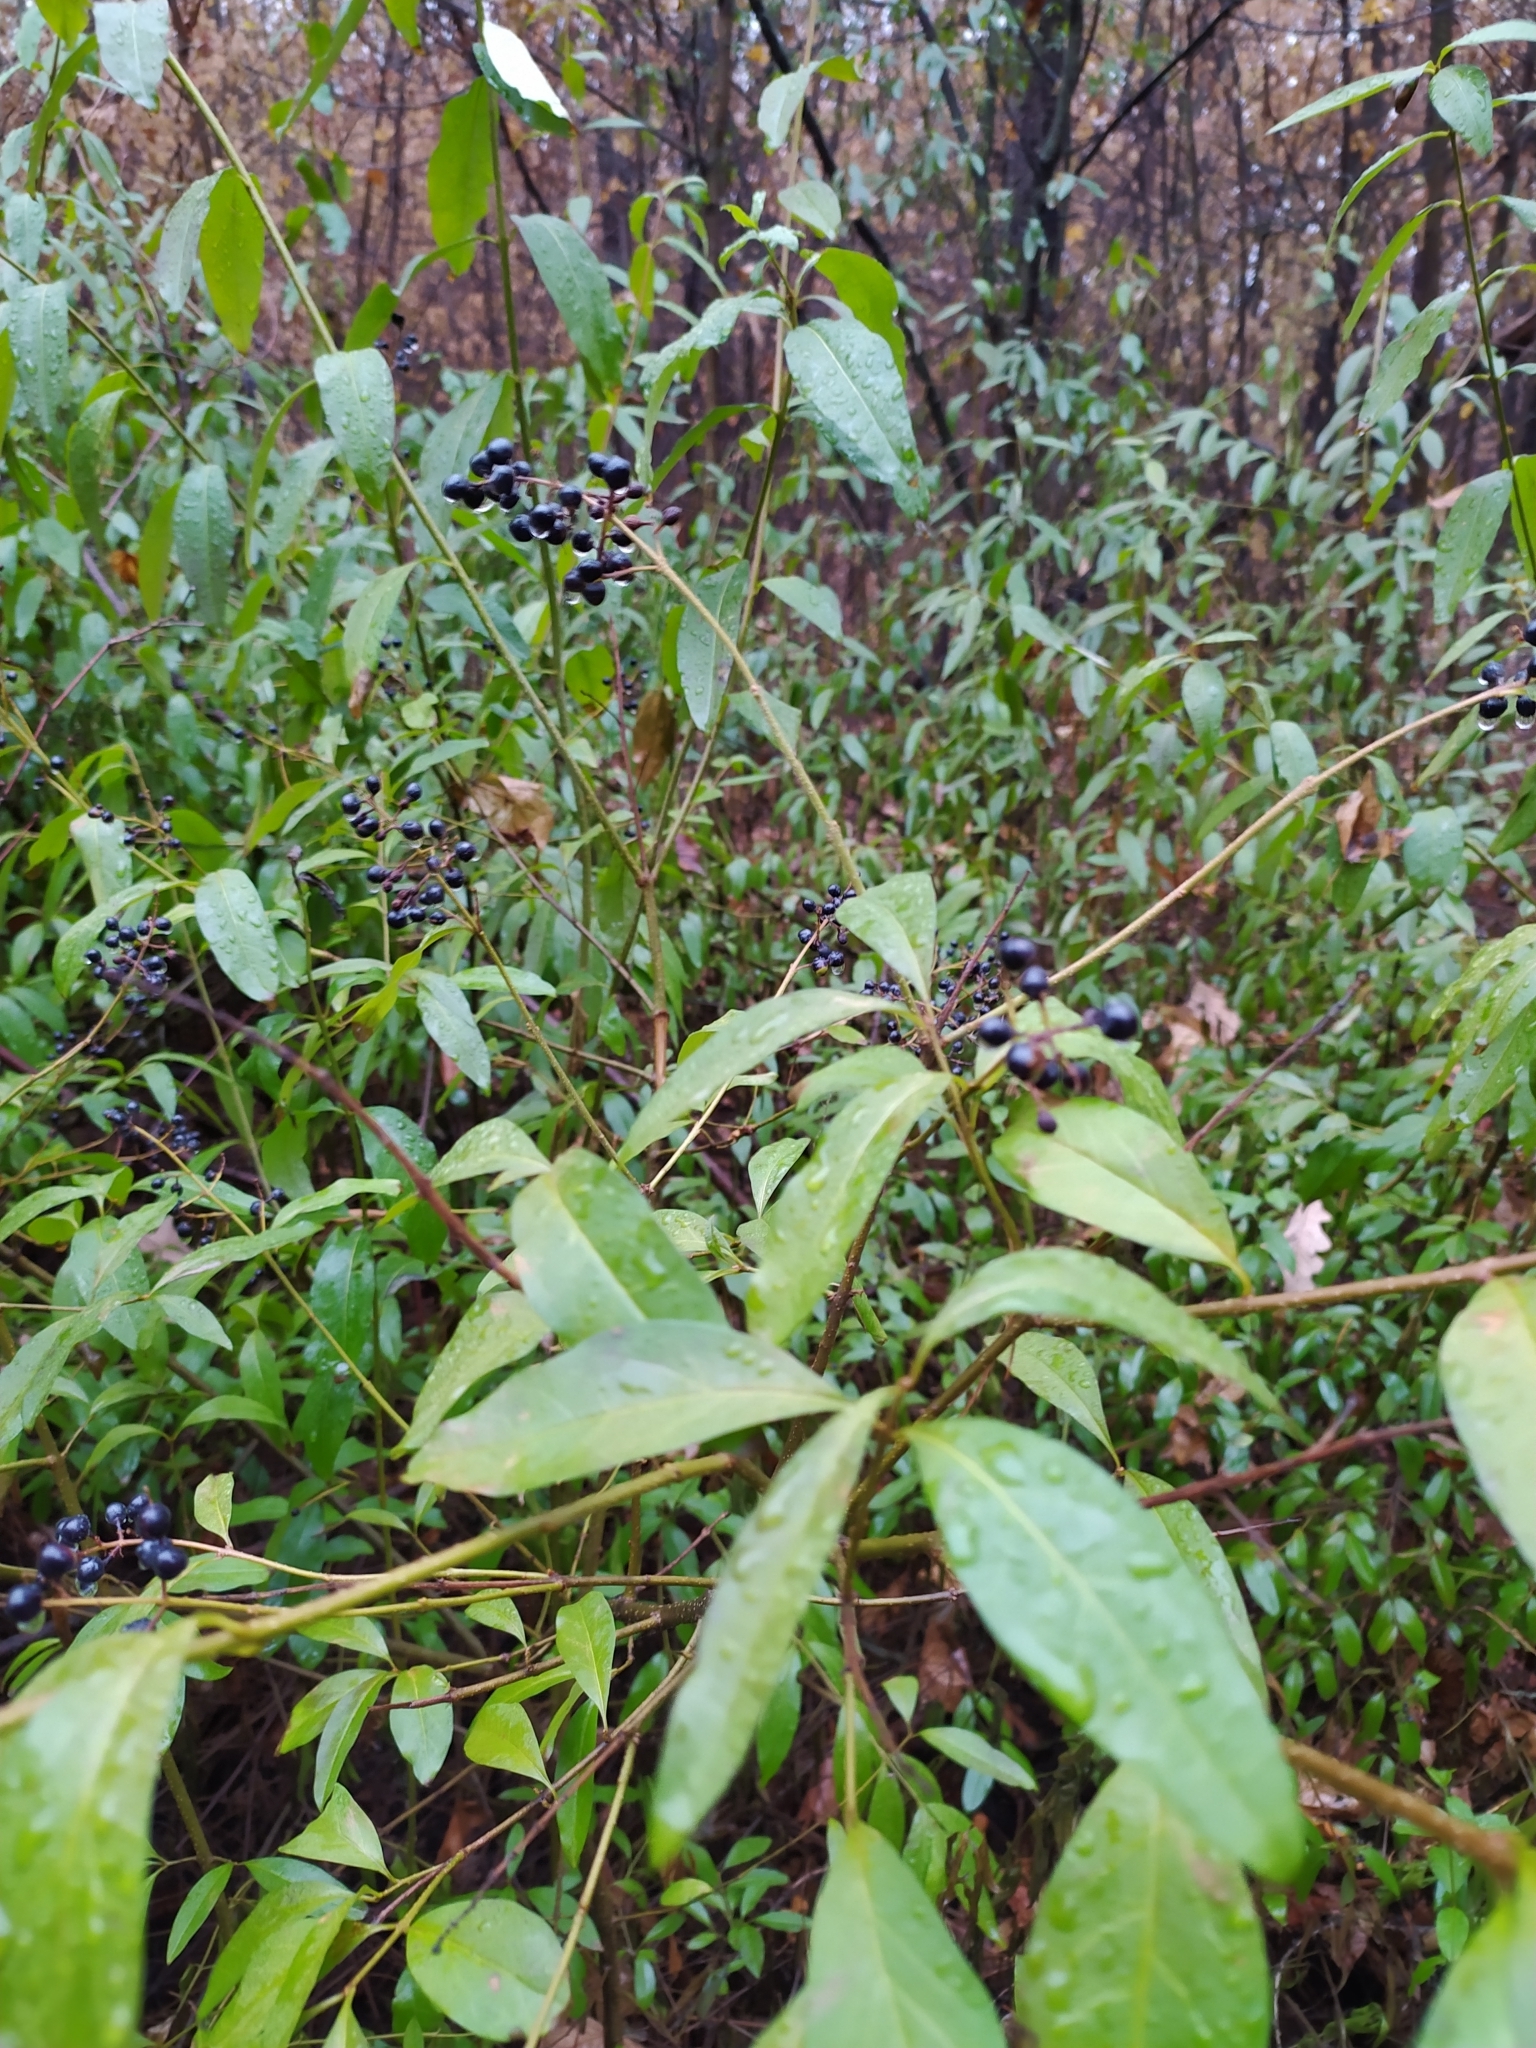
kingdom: Plantae
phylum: Tracheophyta
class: Magnoliopsida
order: Lamiales
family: Oleaceae
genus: Ligustrum
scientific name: Ligustrum vulgare
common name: Wild privet
